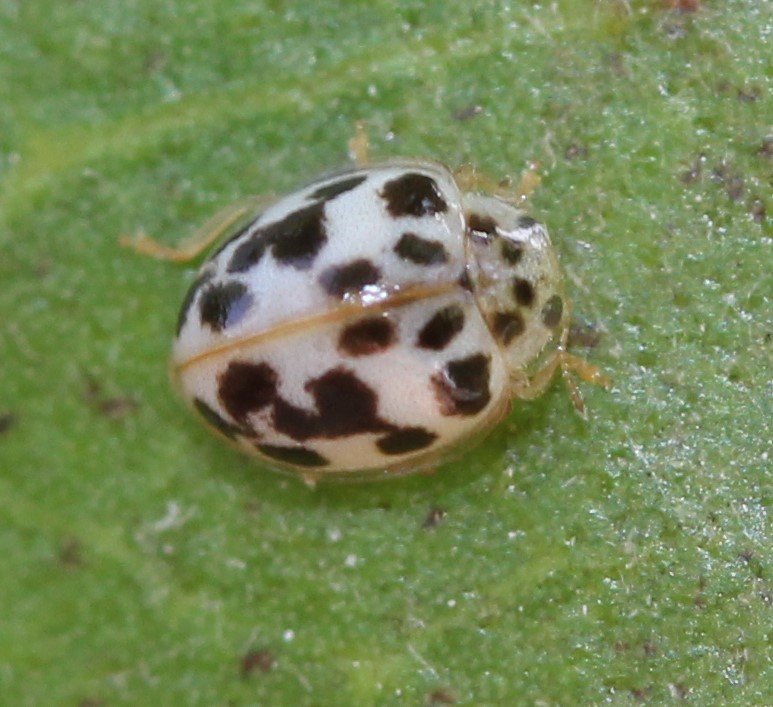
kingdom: Animalia
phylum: Arthropoda
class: Insecta
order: Coleoptera
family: Coccinellidae
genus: Psyllobora
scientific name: Psyllobora parvinotata
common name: Small-spotted psyllobora
